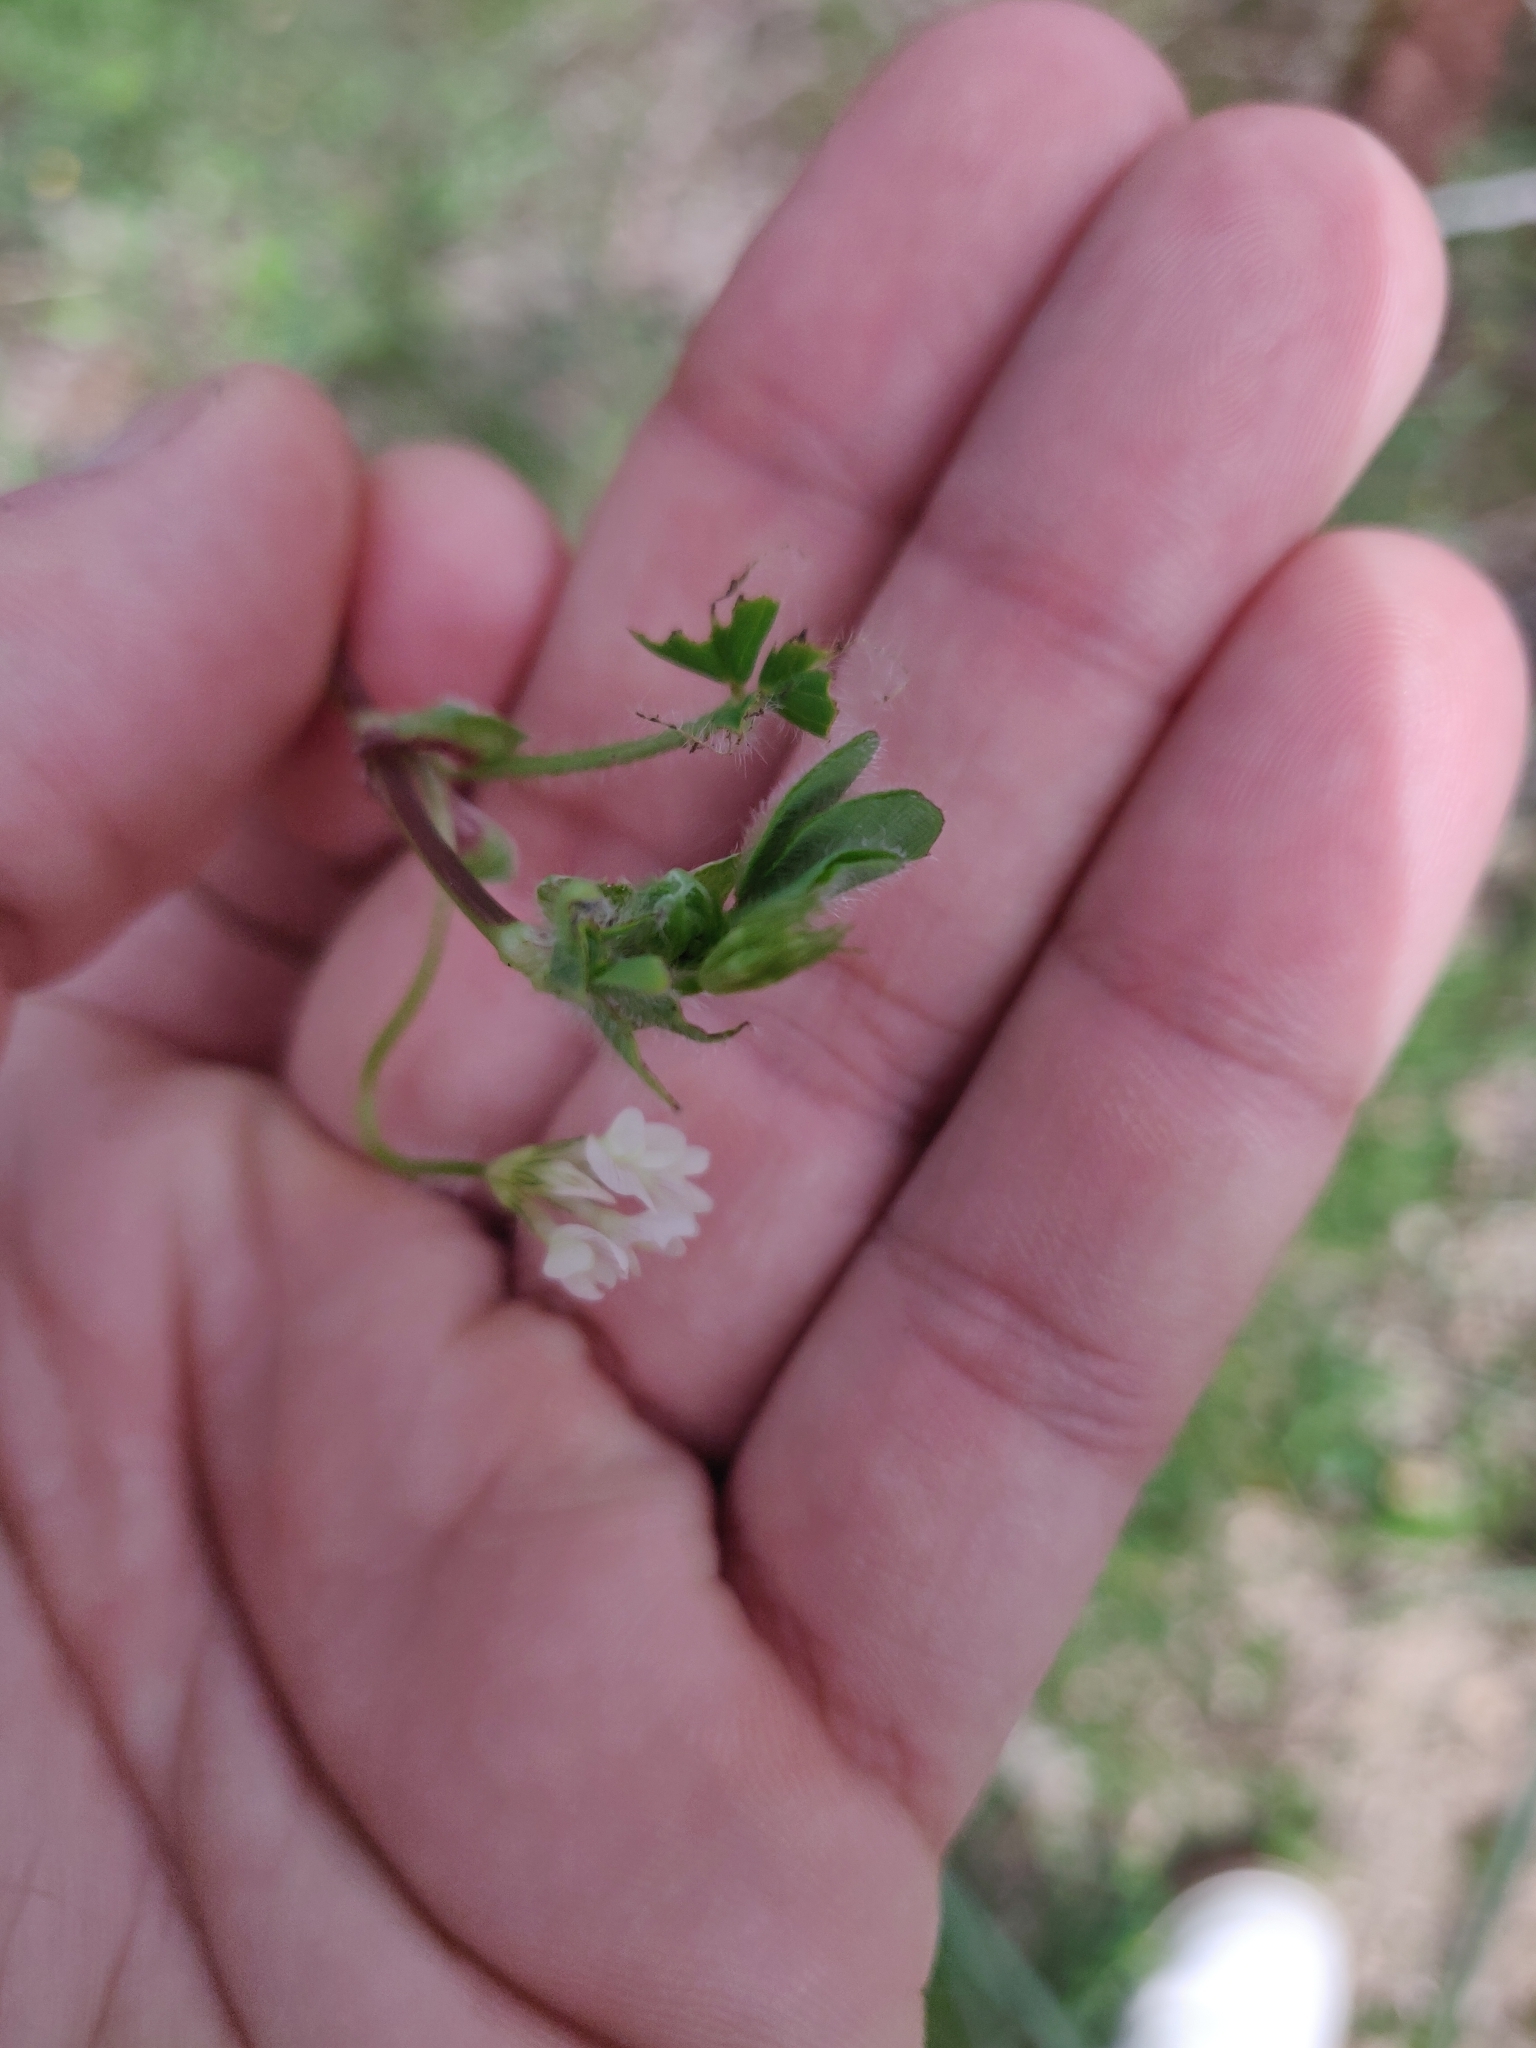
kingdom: Plantae
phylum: Tracheophyta
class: Magnoliopsida
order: Fabales
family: Fabaceae
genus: Trifolium
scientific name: Trifolium subterraneum
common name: Subterranean clover
